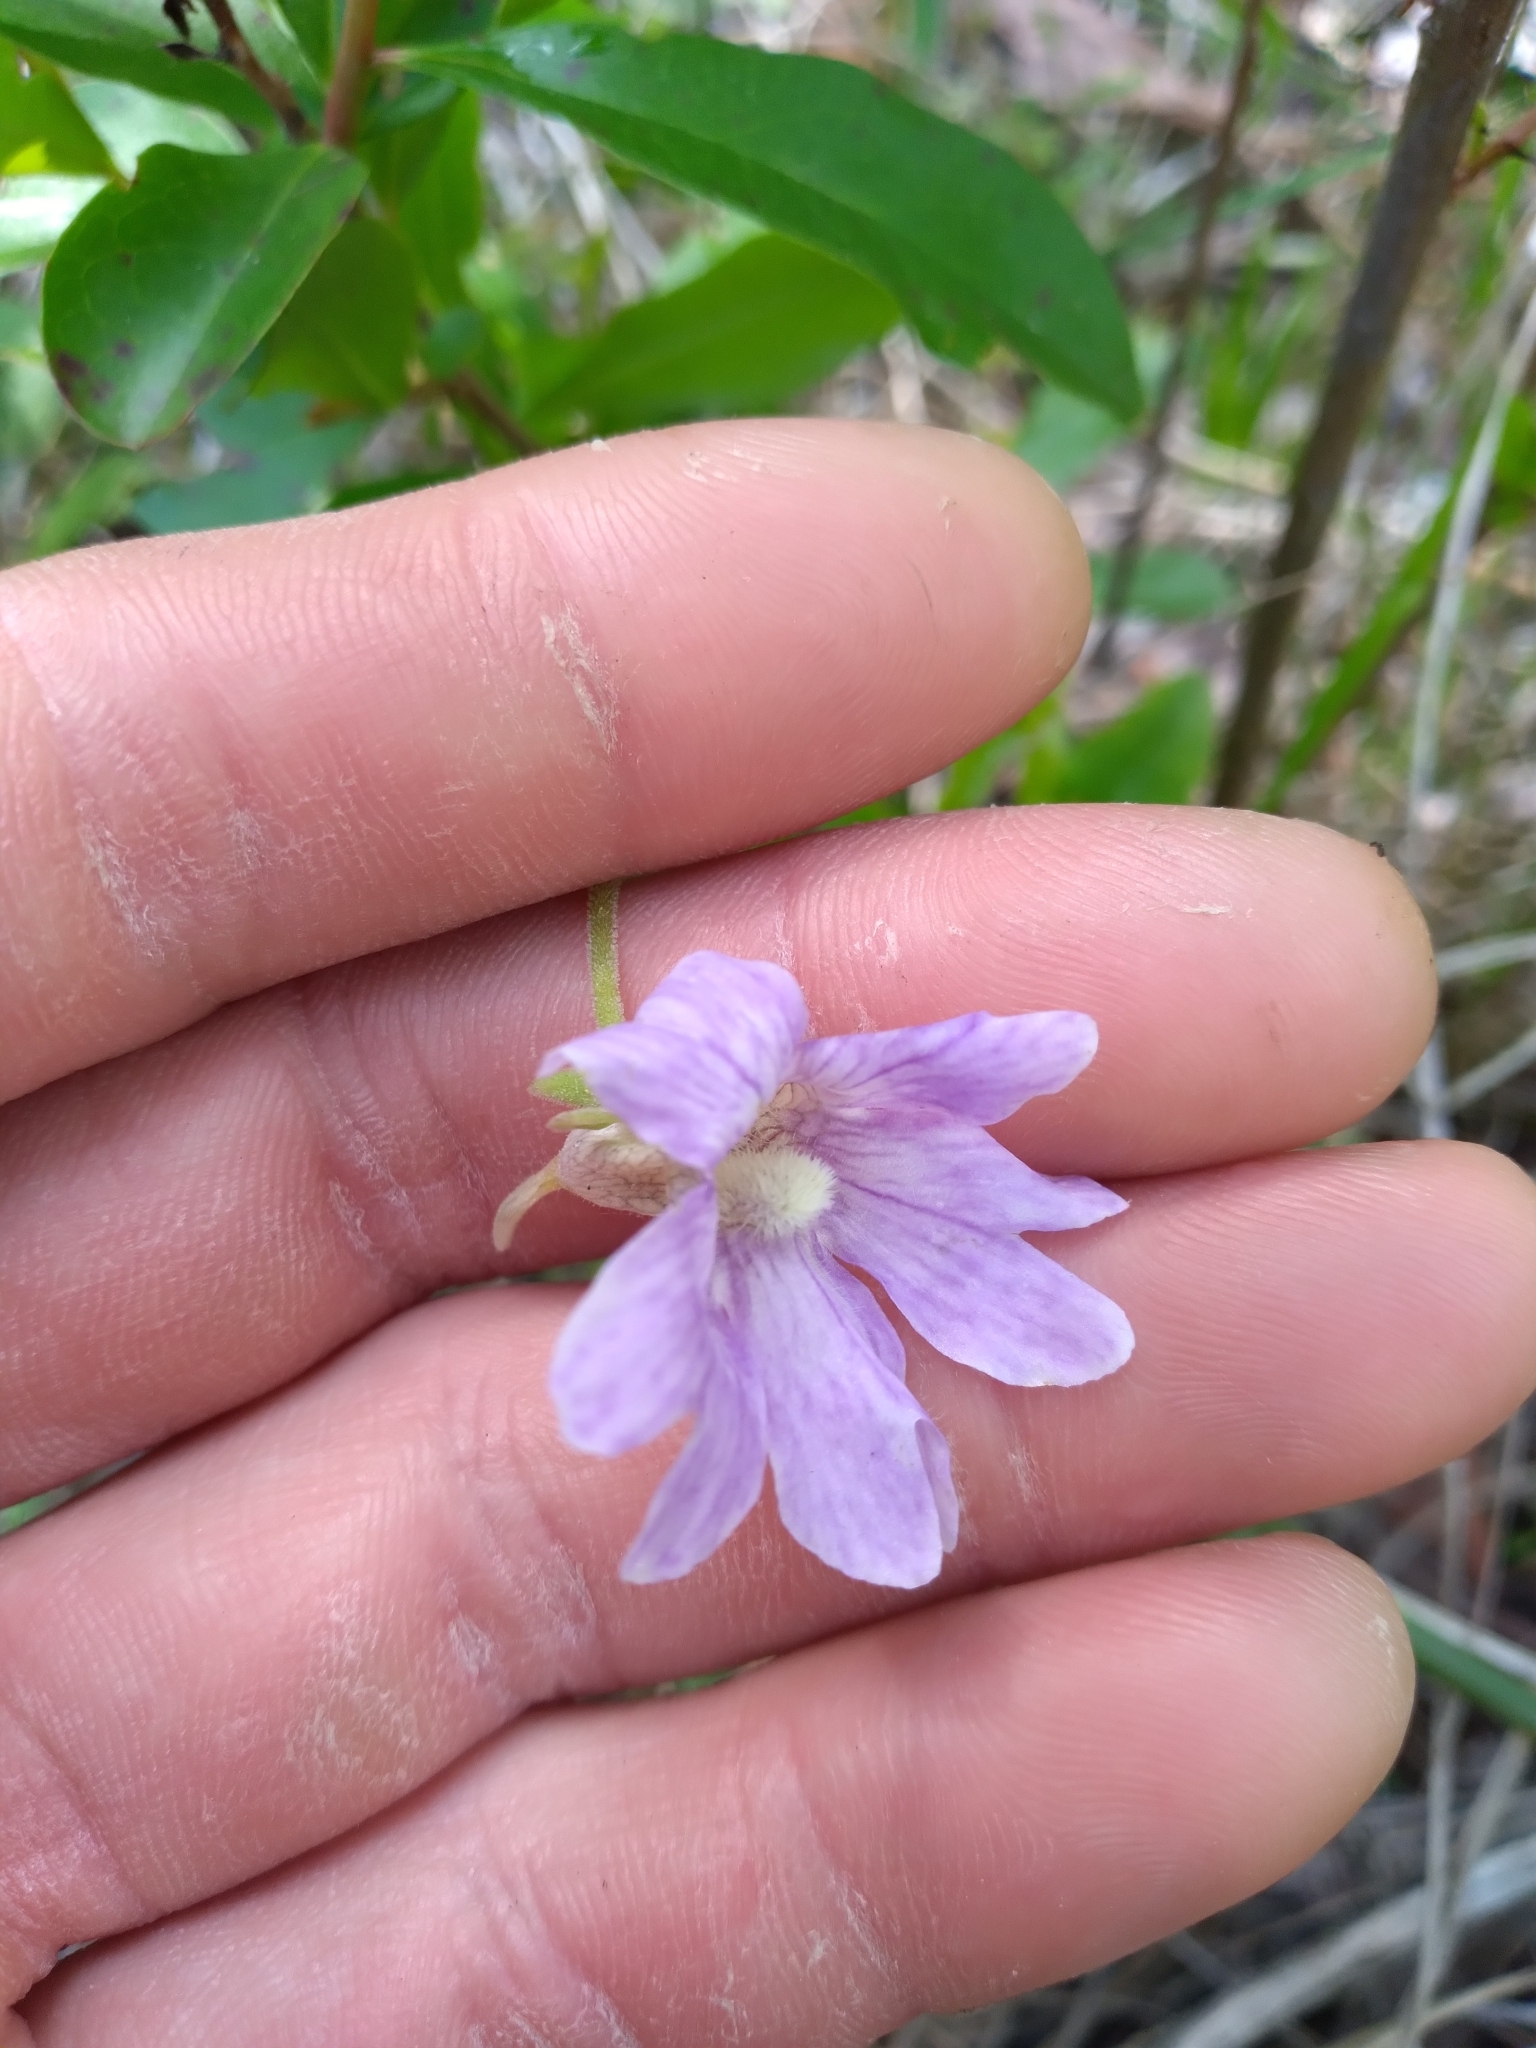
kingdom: Plantae
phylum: Tracheophyta
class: Magnoliopsida
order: Lamiales
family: Lentibulariaceae
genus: Pinguicula
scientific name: Pinguicula caerulea
